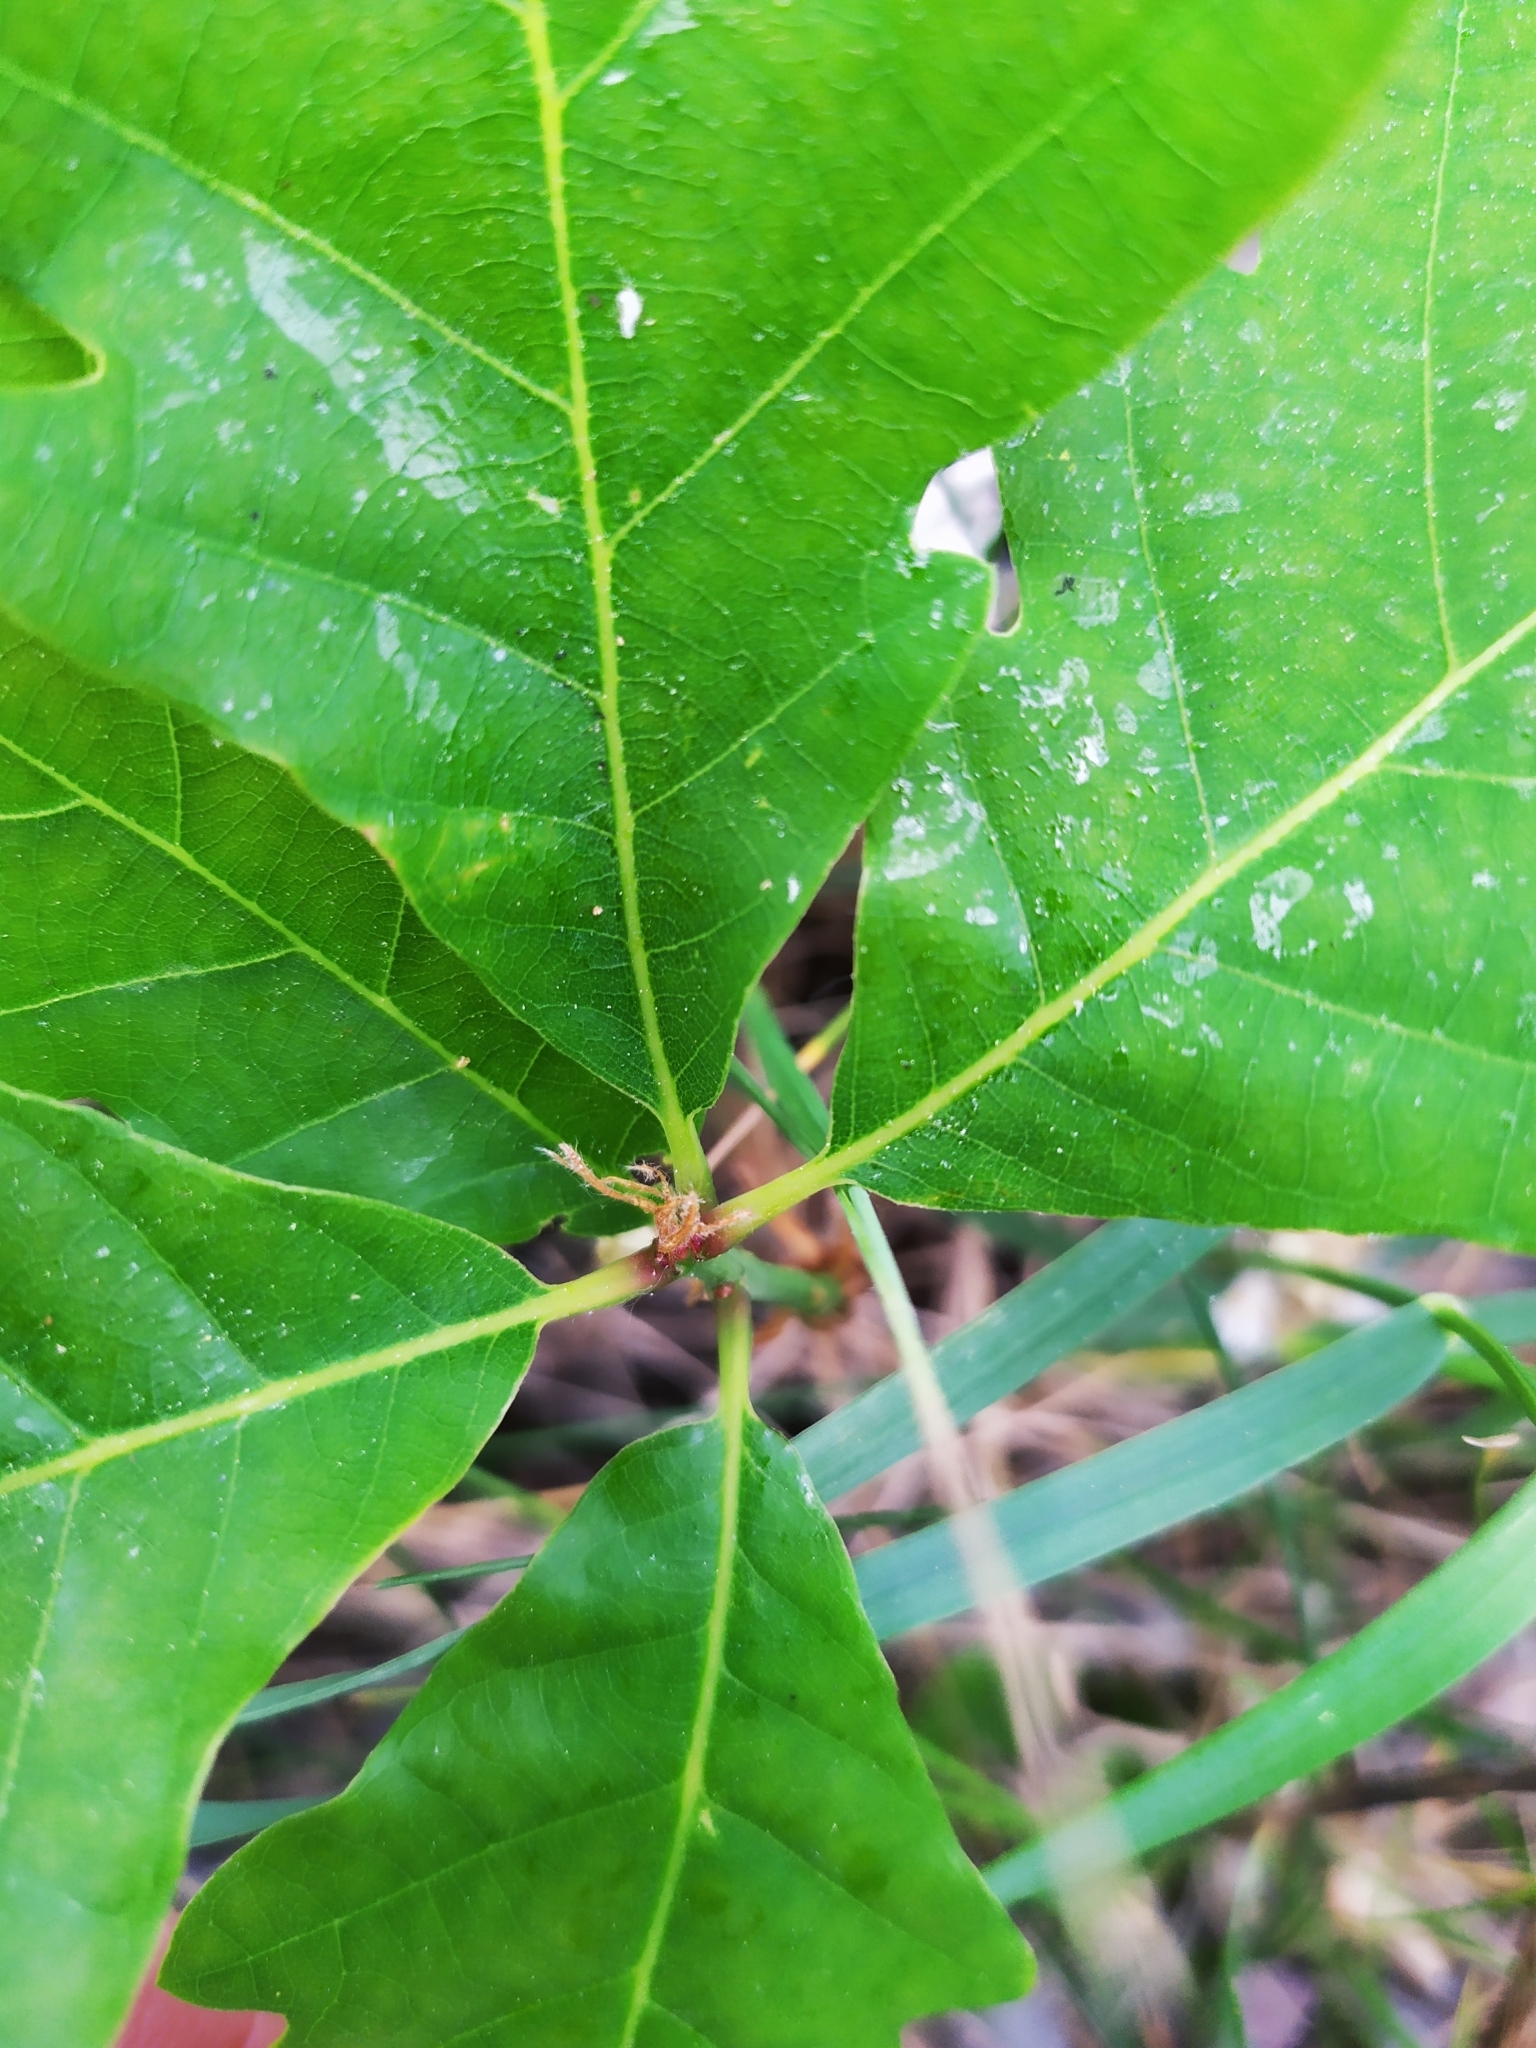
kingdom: Plantae
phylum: Tracheophyta
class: Magnoliopsida
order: Fagales
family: Fagaceae
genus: Quercus
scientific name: Quercus petraea
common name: Sessile oak
